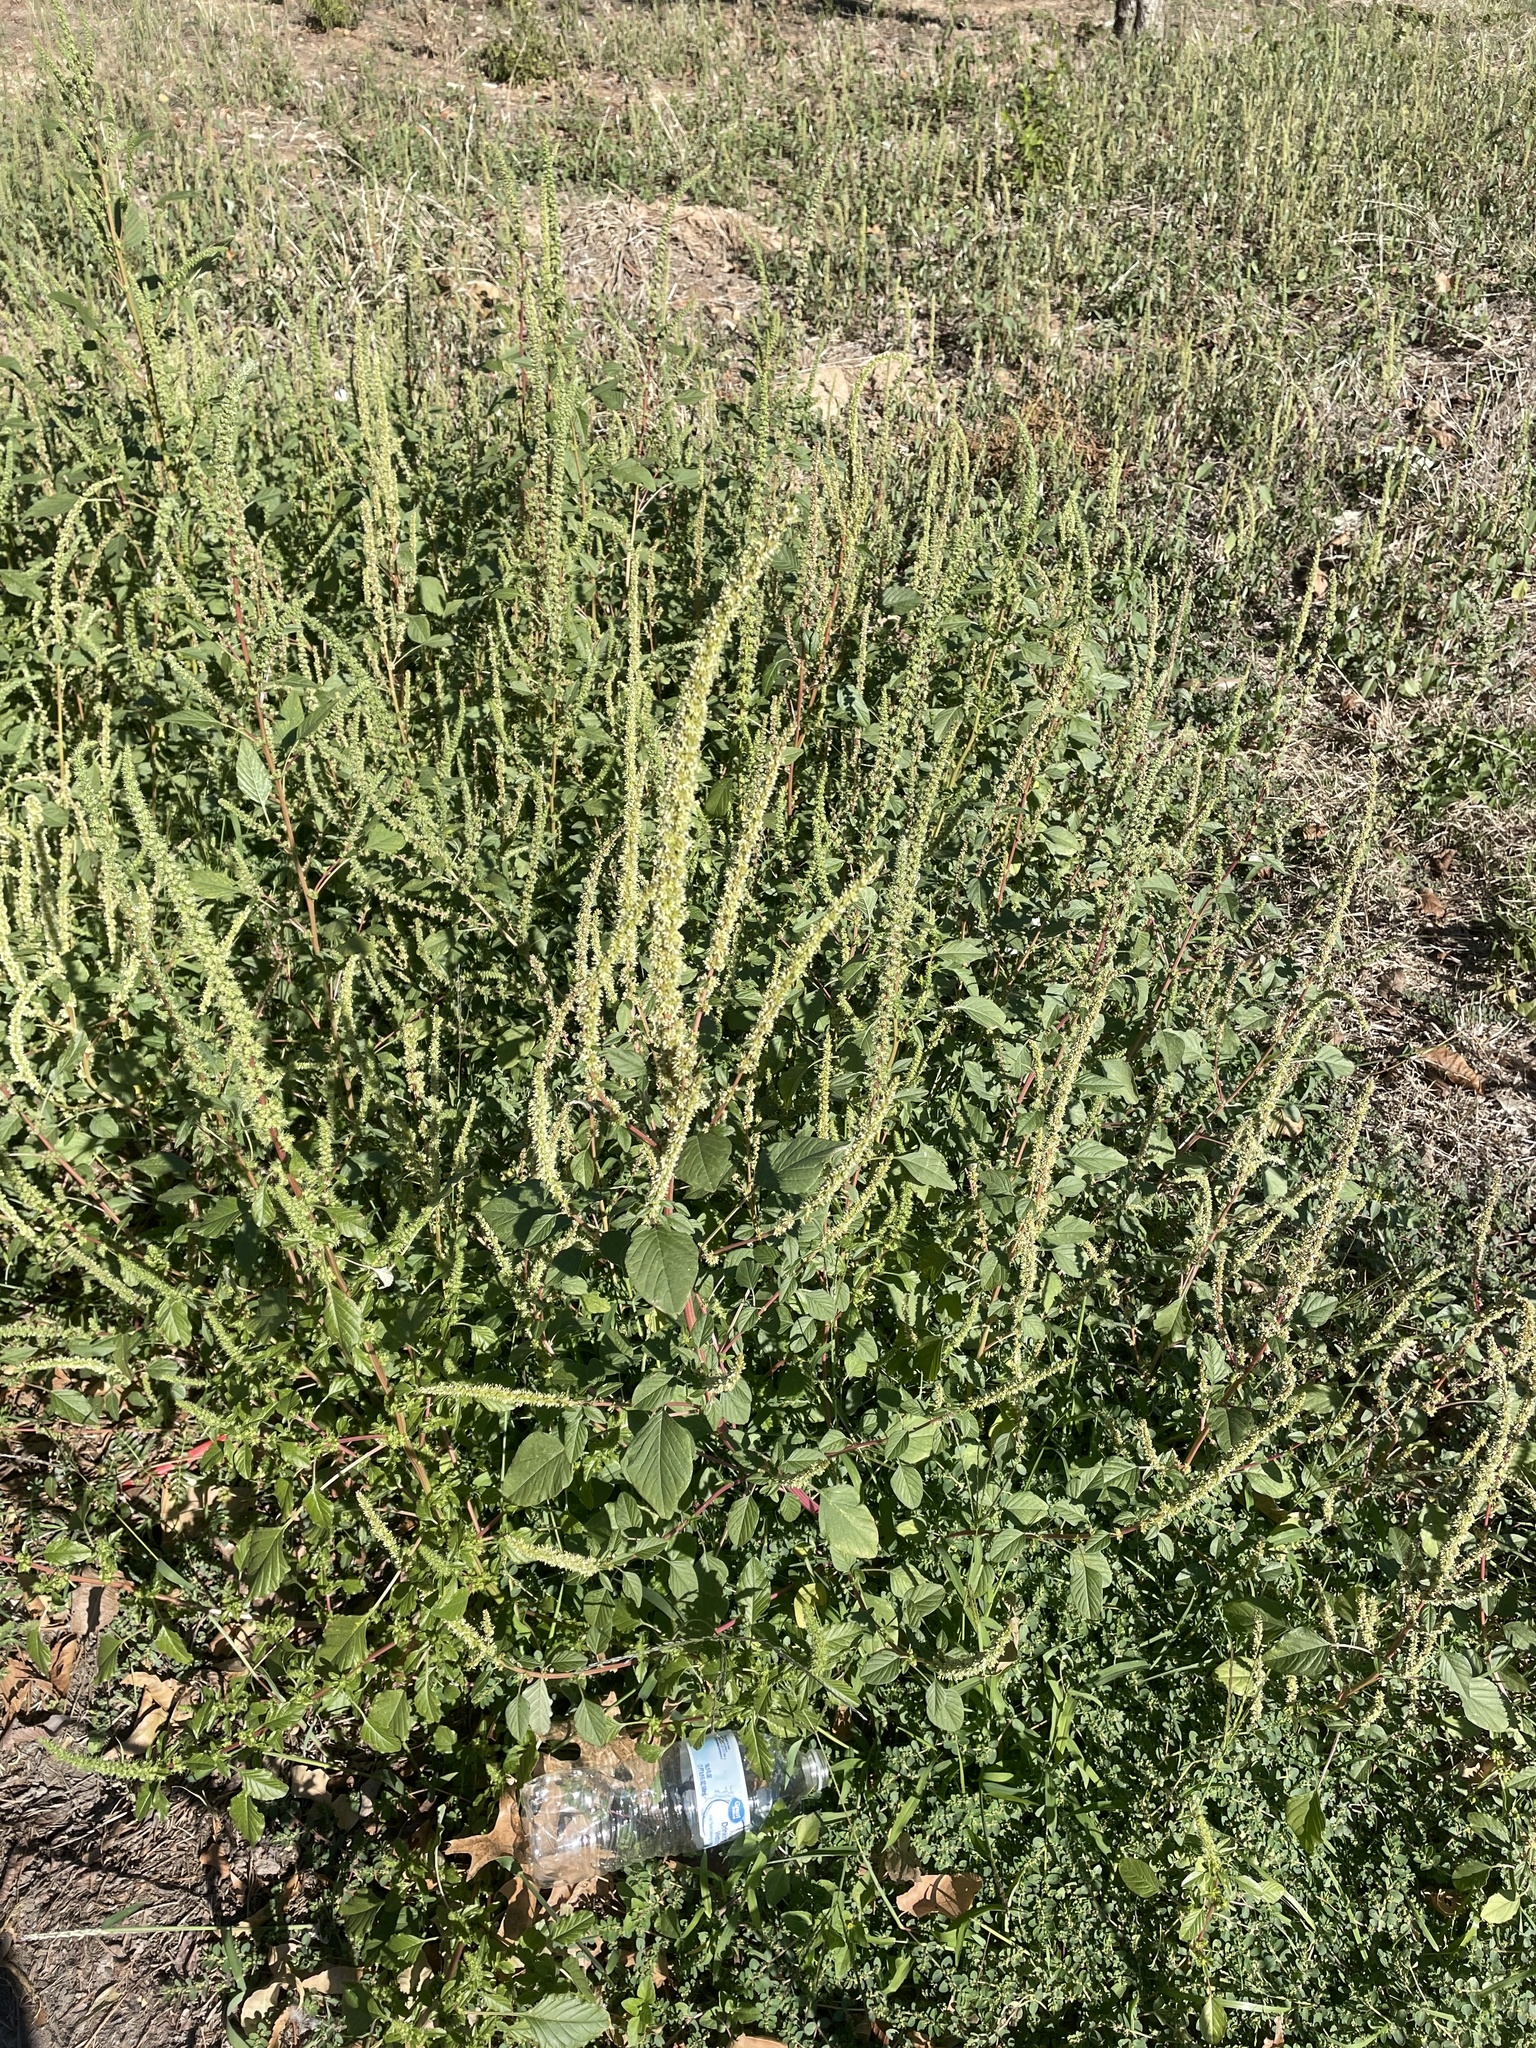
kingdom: Plantae
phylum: Tracheophyta
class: Magnoliopsida
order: Caryophyllales
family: Amaranthaceae
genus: Amaranthus
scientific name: Amaranthus palmeri
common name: Dioecious amaranth
